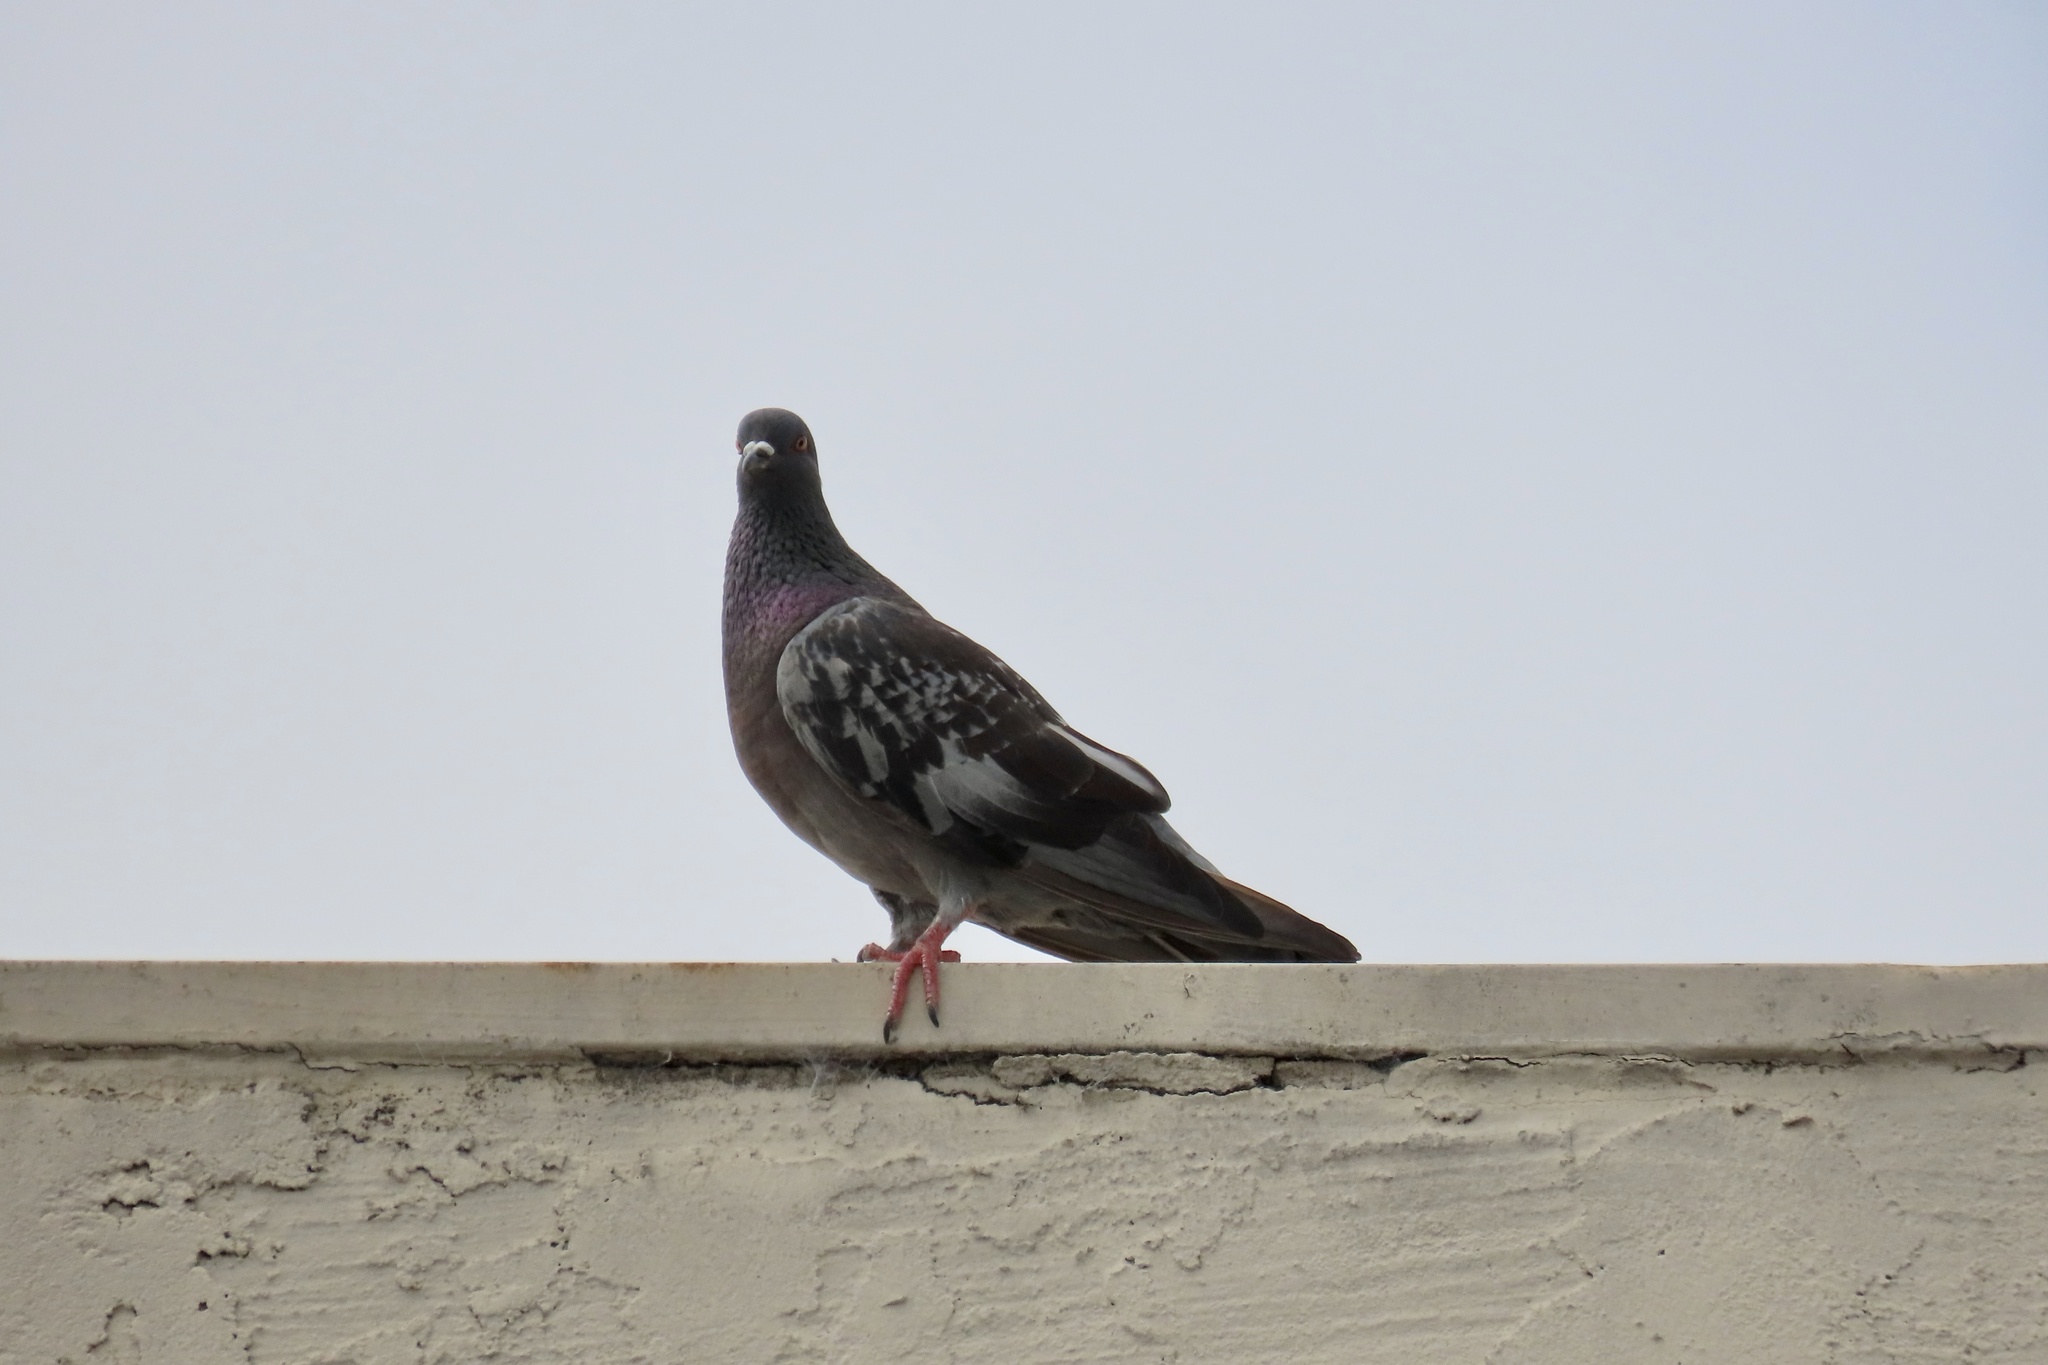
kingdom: Animalia
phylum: Chordata
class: Aves
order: Columbiformes
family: Columbidae
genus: Columba
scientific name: Columba livia
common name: Rock pigeon
